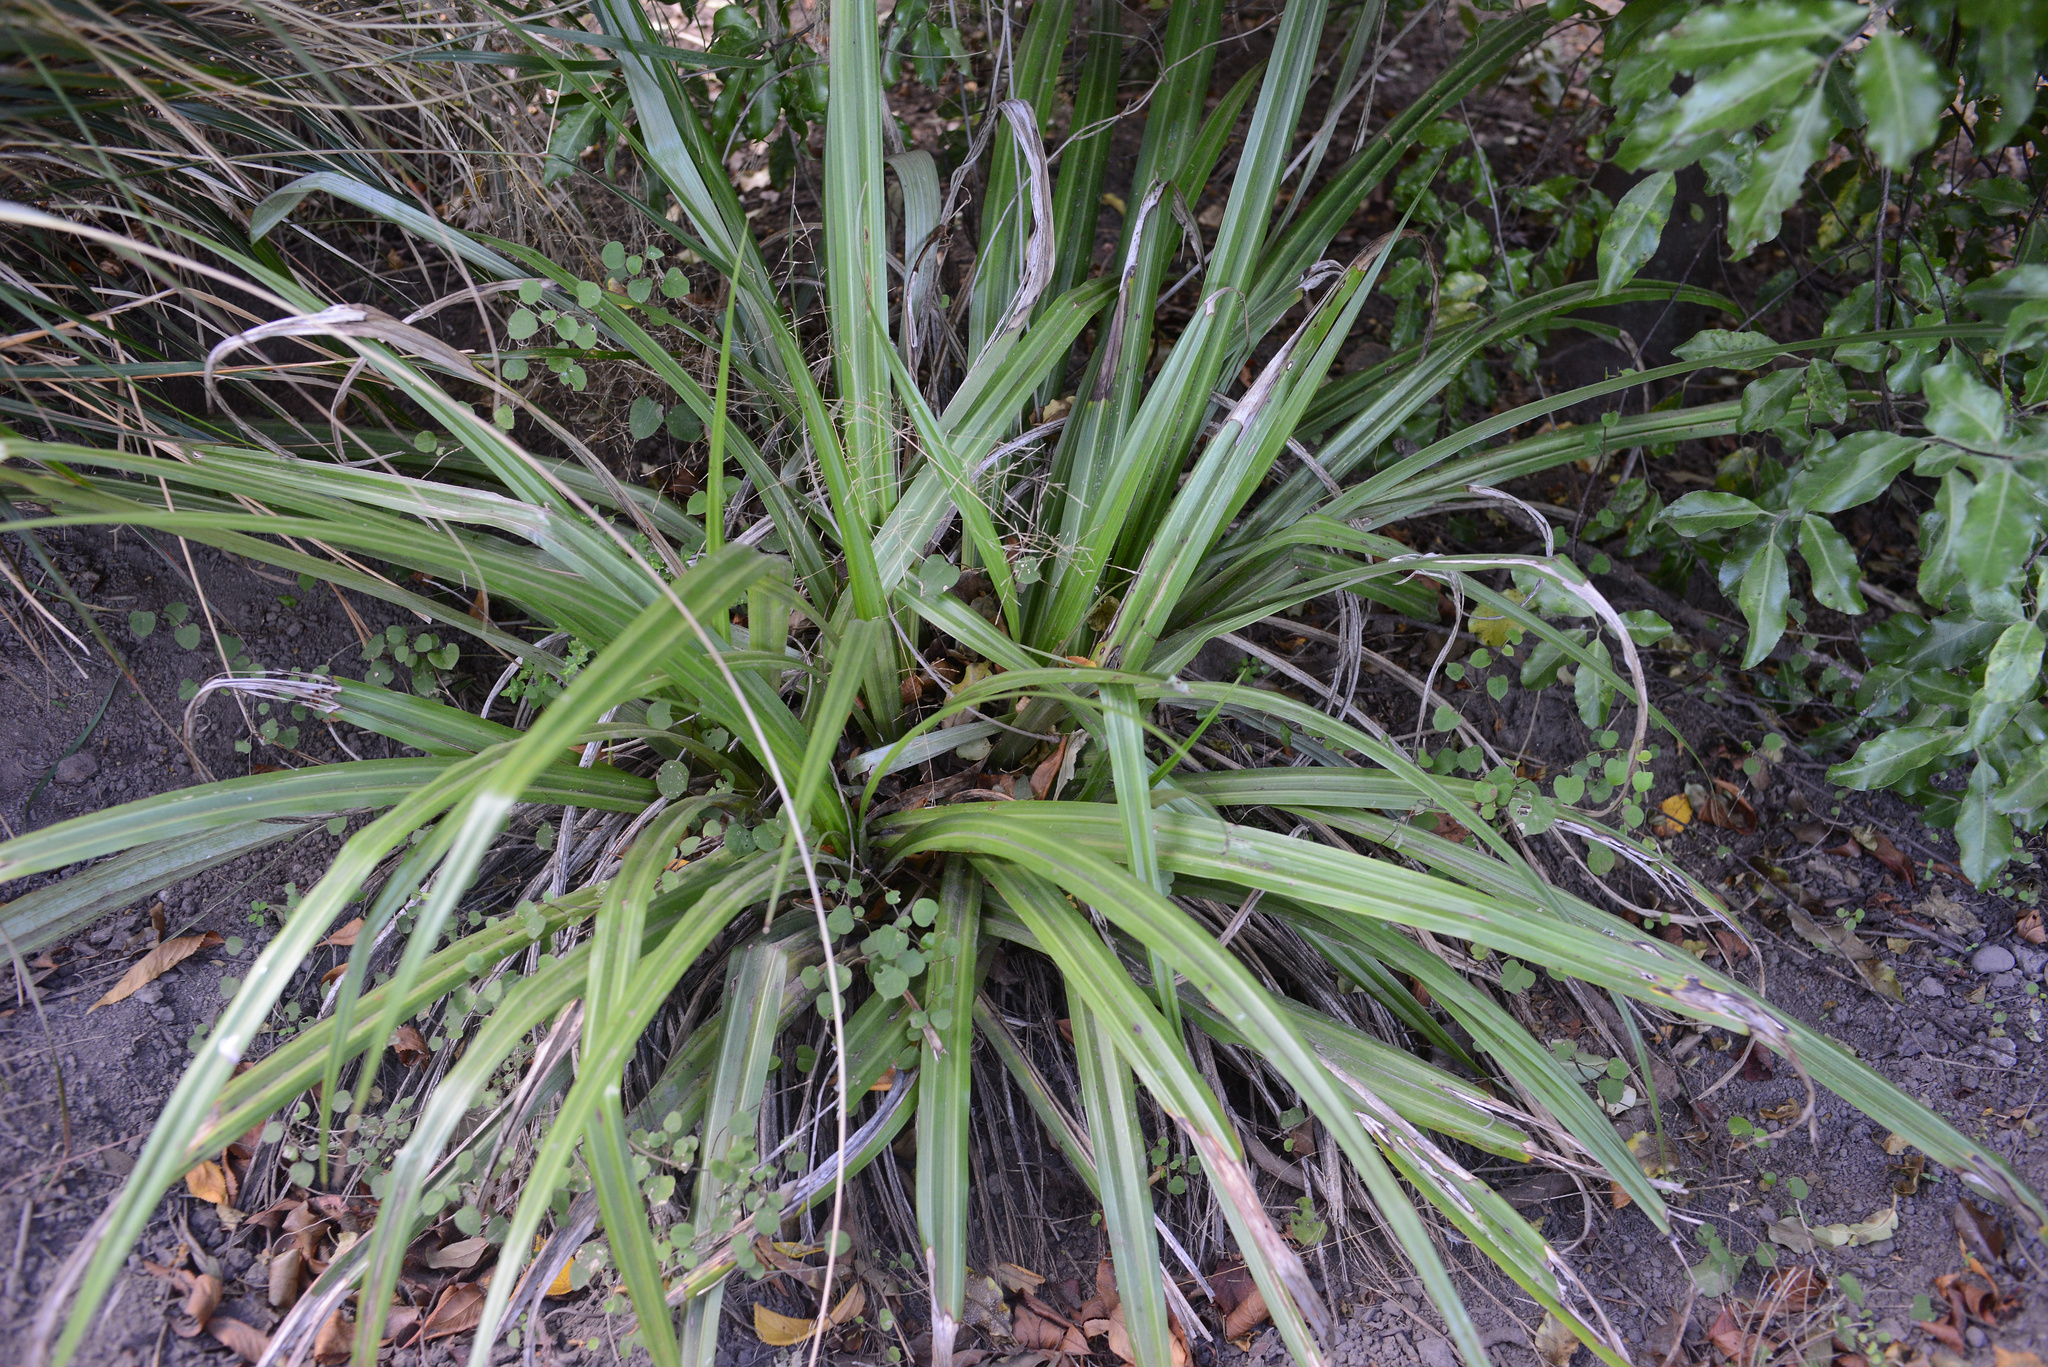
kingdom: Plantae
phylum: Tracheophyta
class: Liliopsida
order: Asparagales
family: Asteliaceae
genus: Astelia
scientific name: Astelia fragrans
